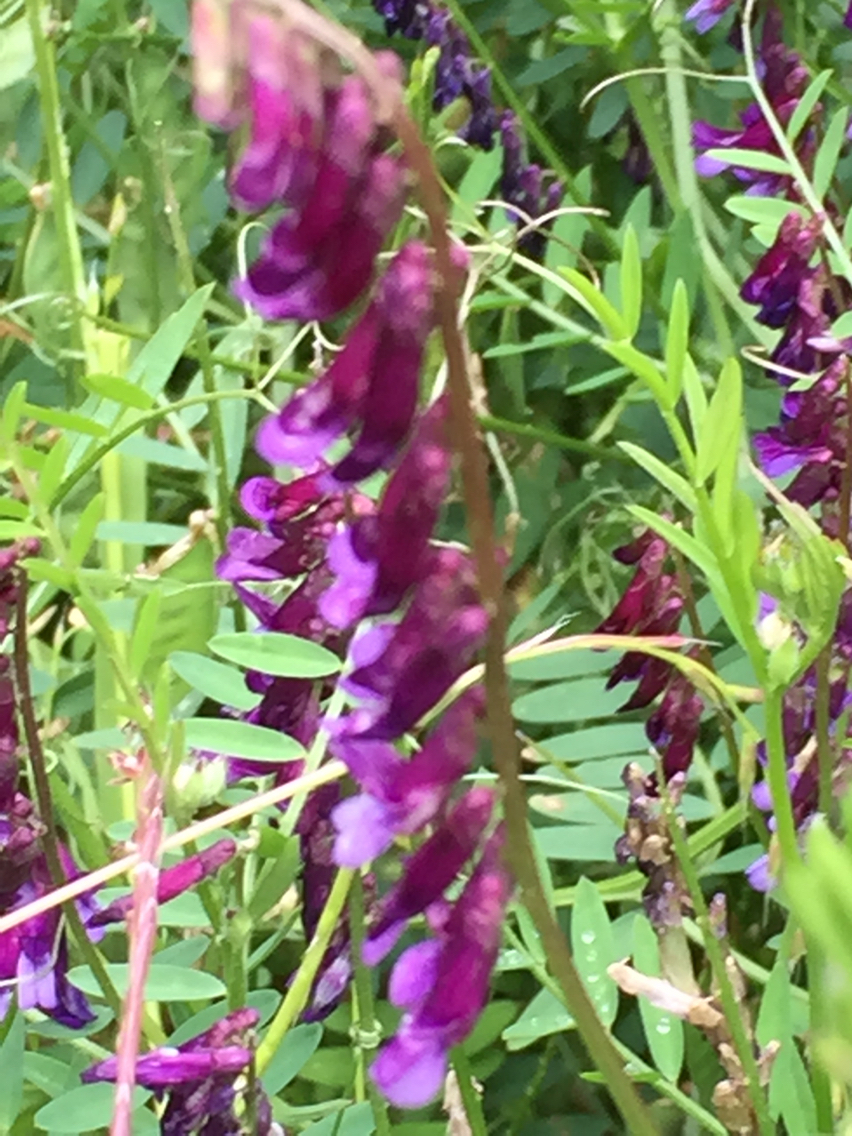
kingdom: Plantae
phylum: Tracheophyta
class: Magnoliopsida
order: Fabales
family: Fabaceae
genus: Vicia
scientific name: Vicia villosa
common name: Fodder vetch
